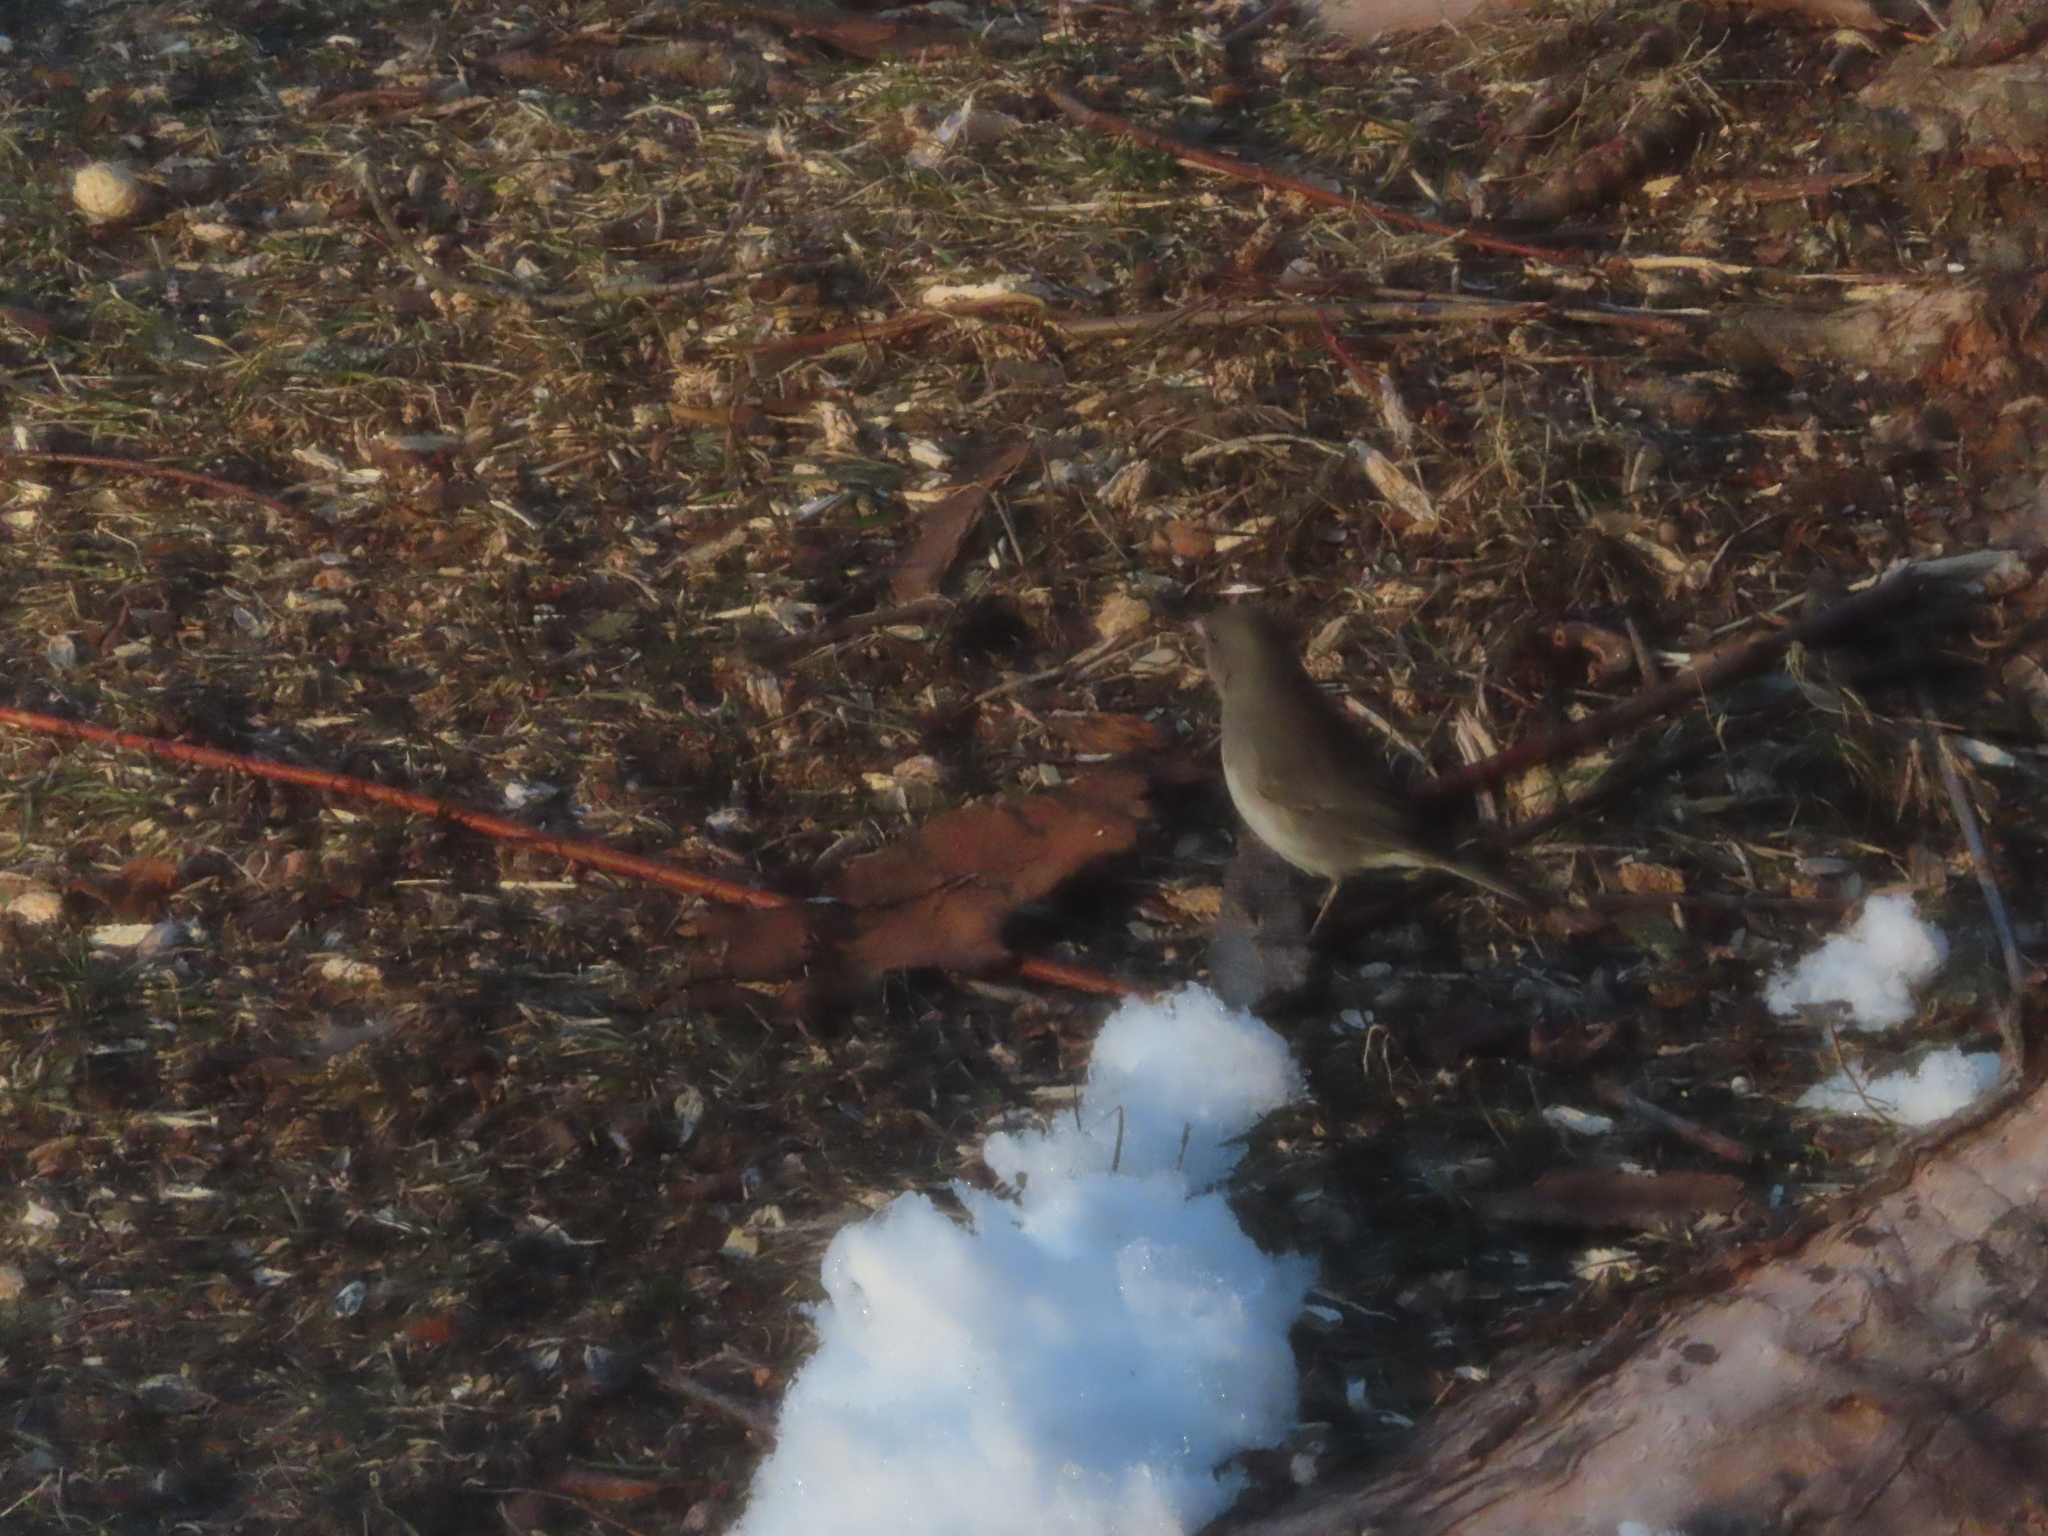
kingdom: Animalia
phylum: Chordata
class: Aves
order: Passeriformes
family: Passerellidae
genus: Junco
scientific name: Junco hyemalis
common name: Dark-eyed junco
